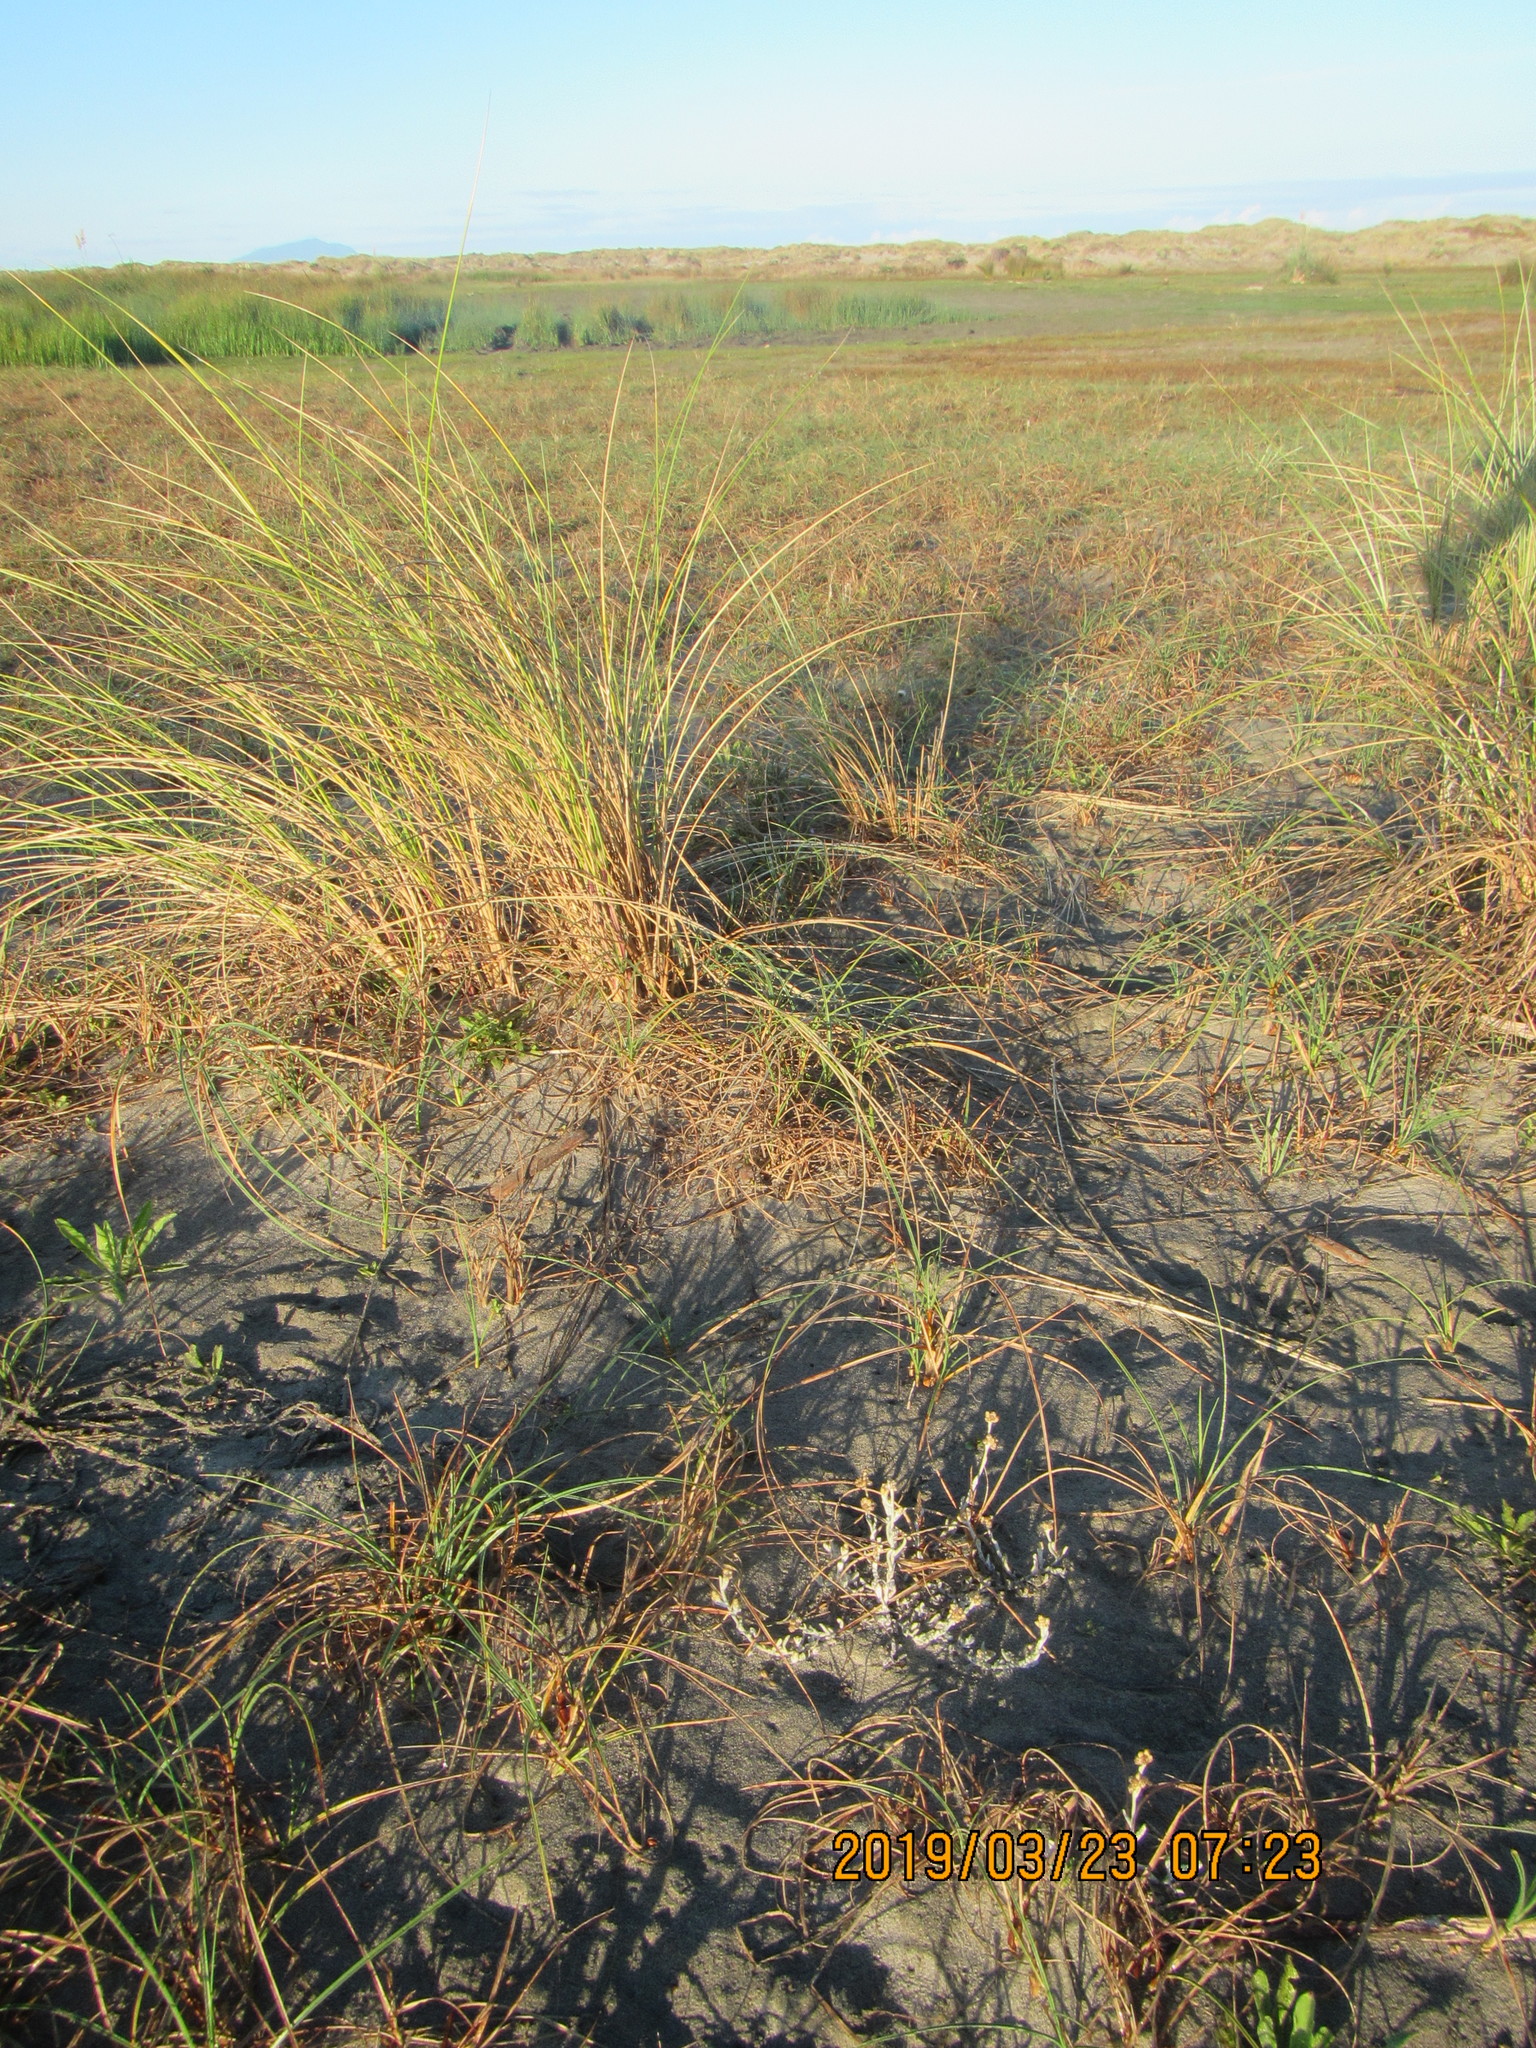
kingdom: Plantae
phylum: Tracheophyta
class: Magnoliopsida
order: Asterales
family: Asteraceae
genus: Helichrysum
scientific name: Helichrysum luteoalbum
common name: Daisy
